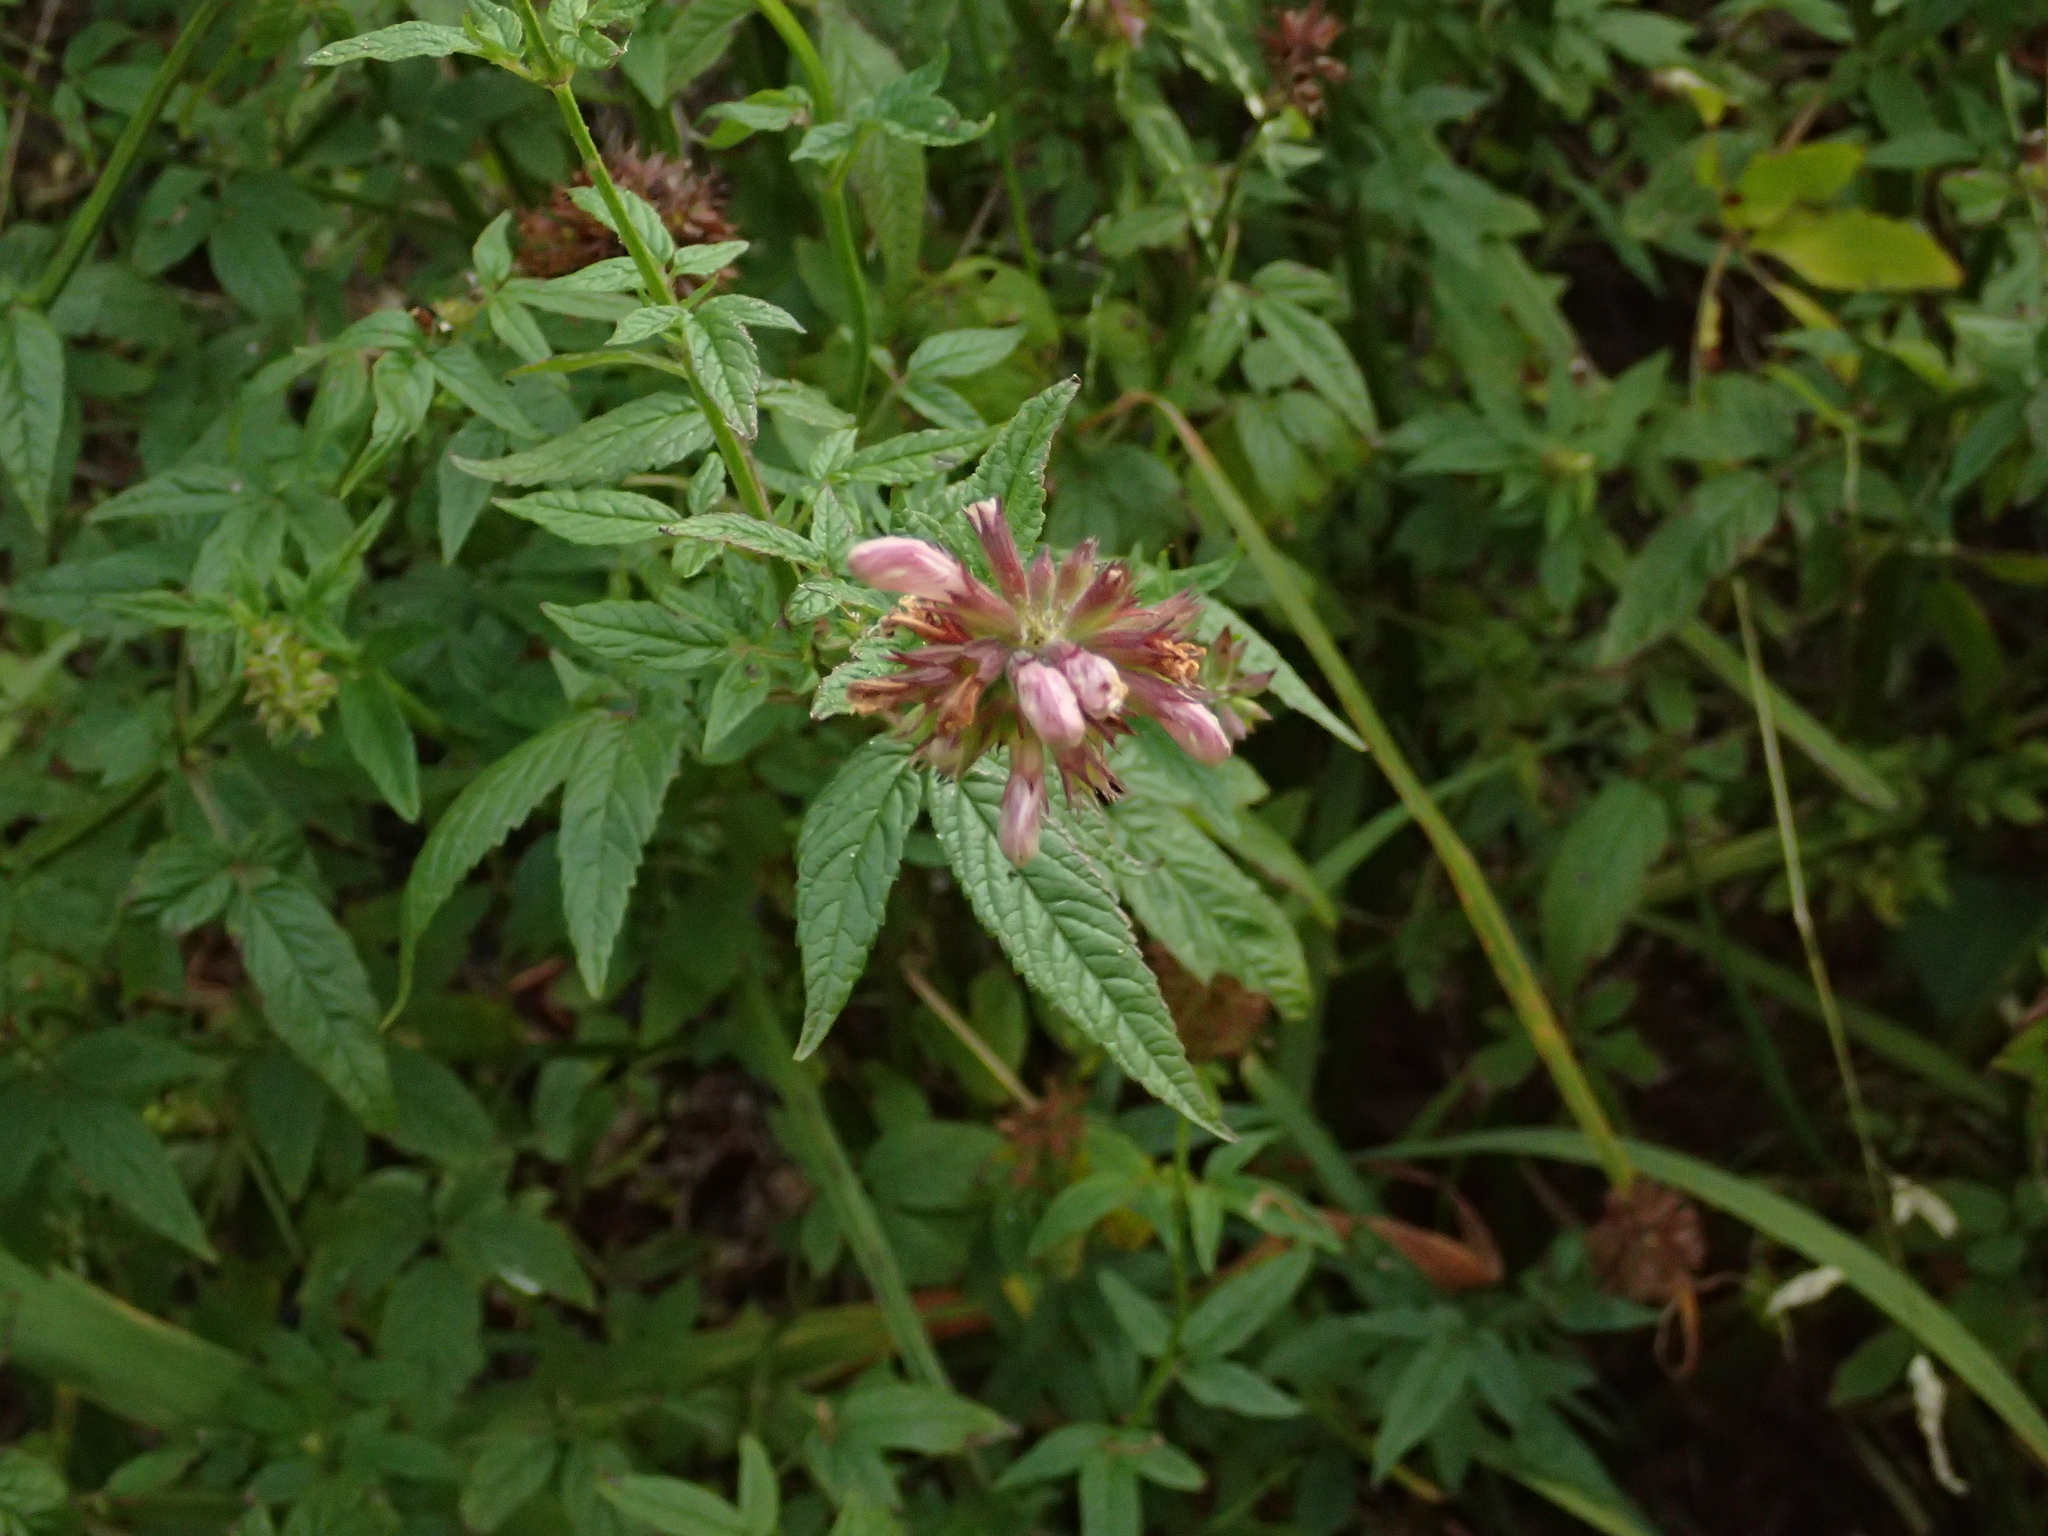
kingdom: Plantae
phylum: Tracheophyta
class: Magnoliopsida
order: Lamiales
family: Lamiaceae
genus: Cedronella
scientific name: Cedronella canariensis
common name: Canary islands balm
